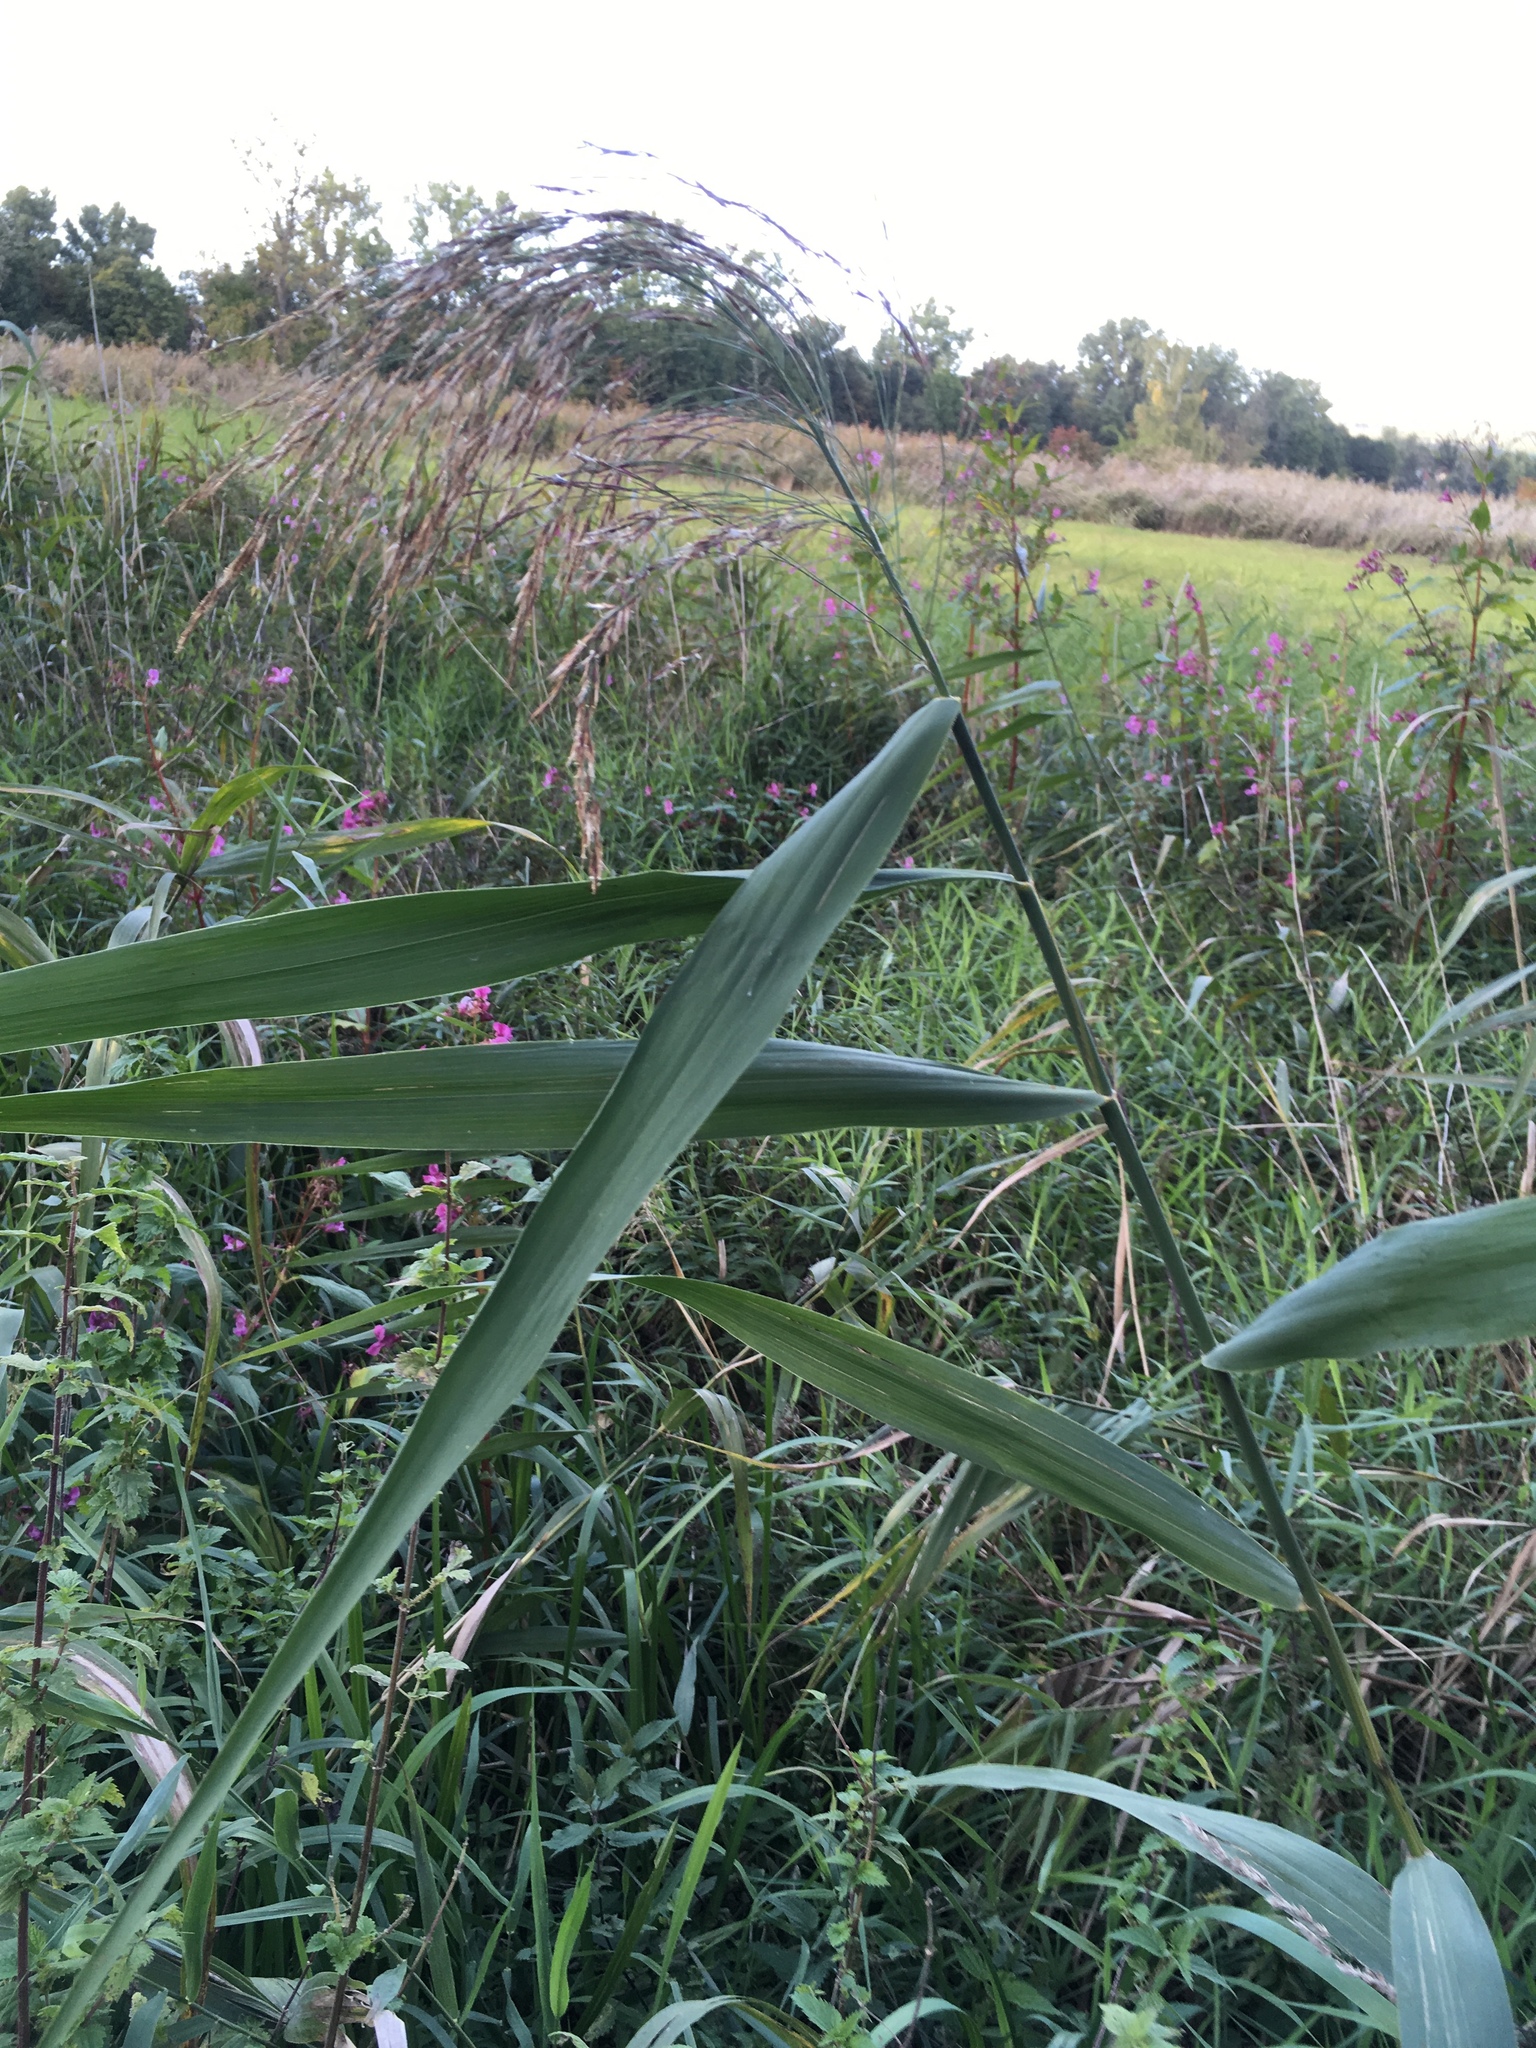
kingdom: Plantae
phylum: Tracheophyta
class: Liliopsida
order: Poales
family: Poaceae
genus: Phragmites
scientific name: Phragmites australis
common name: Common reed
